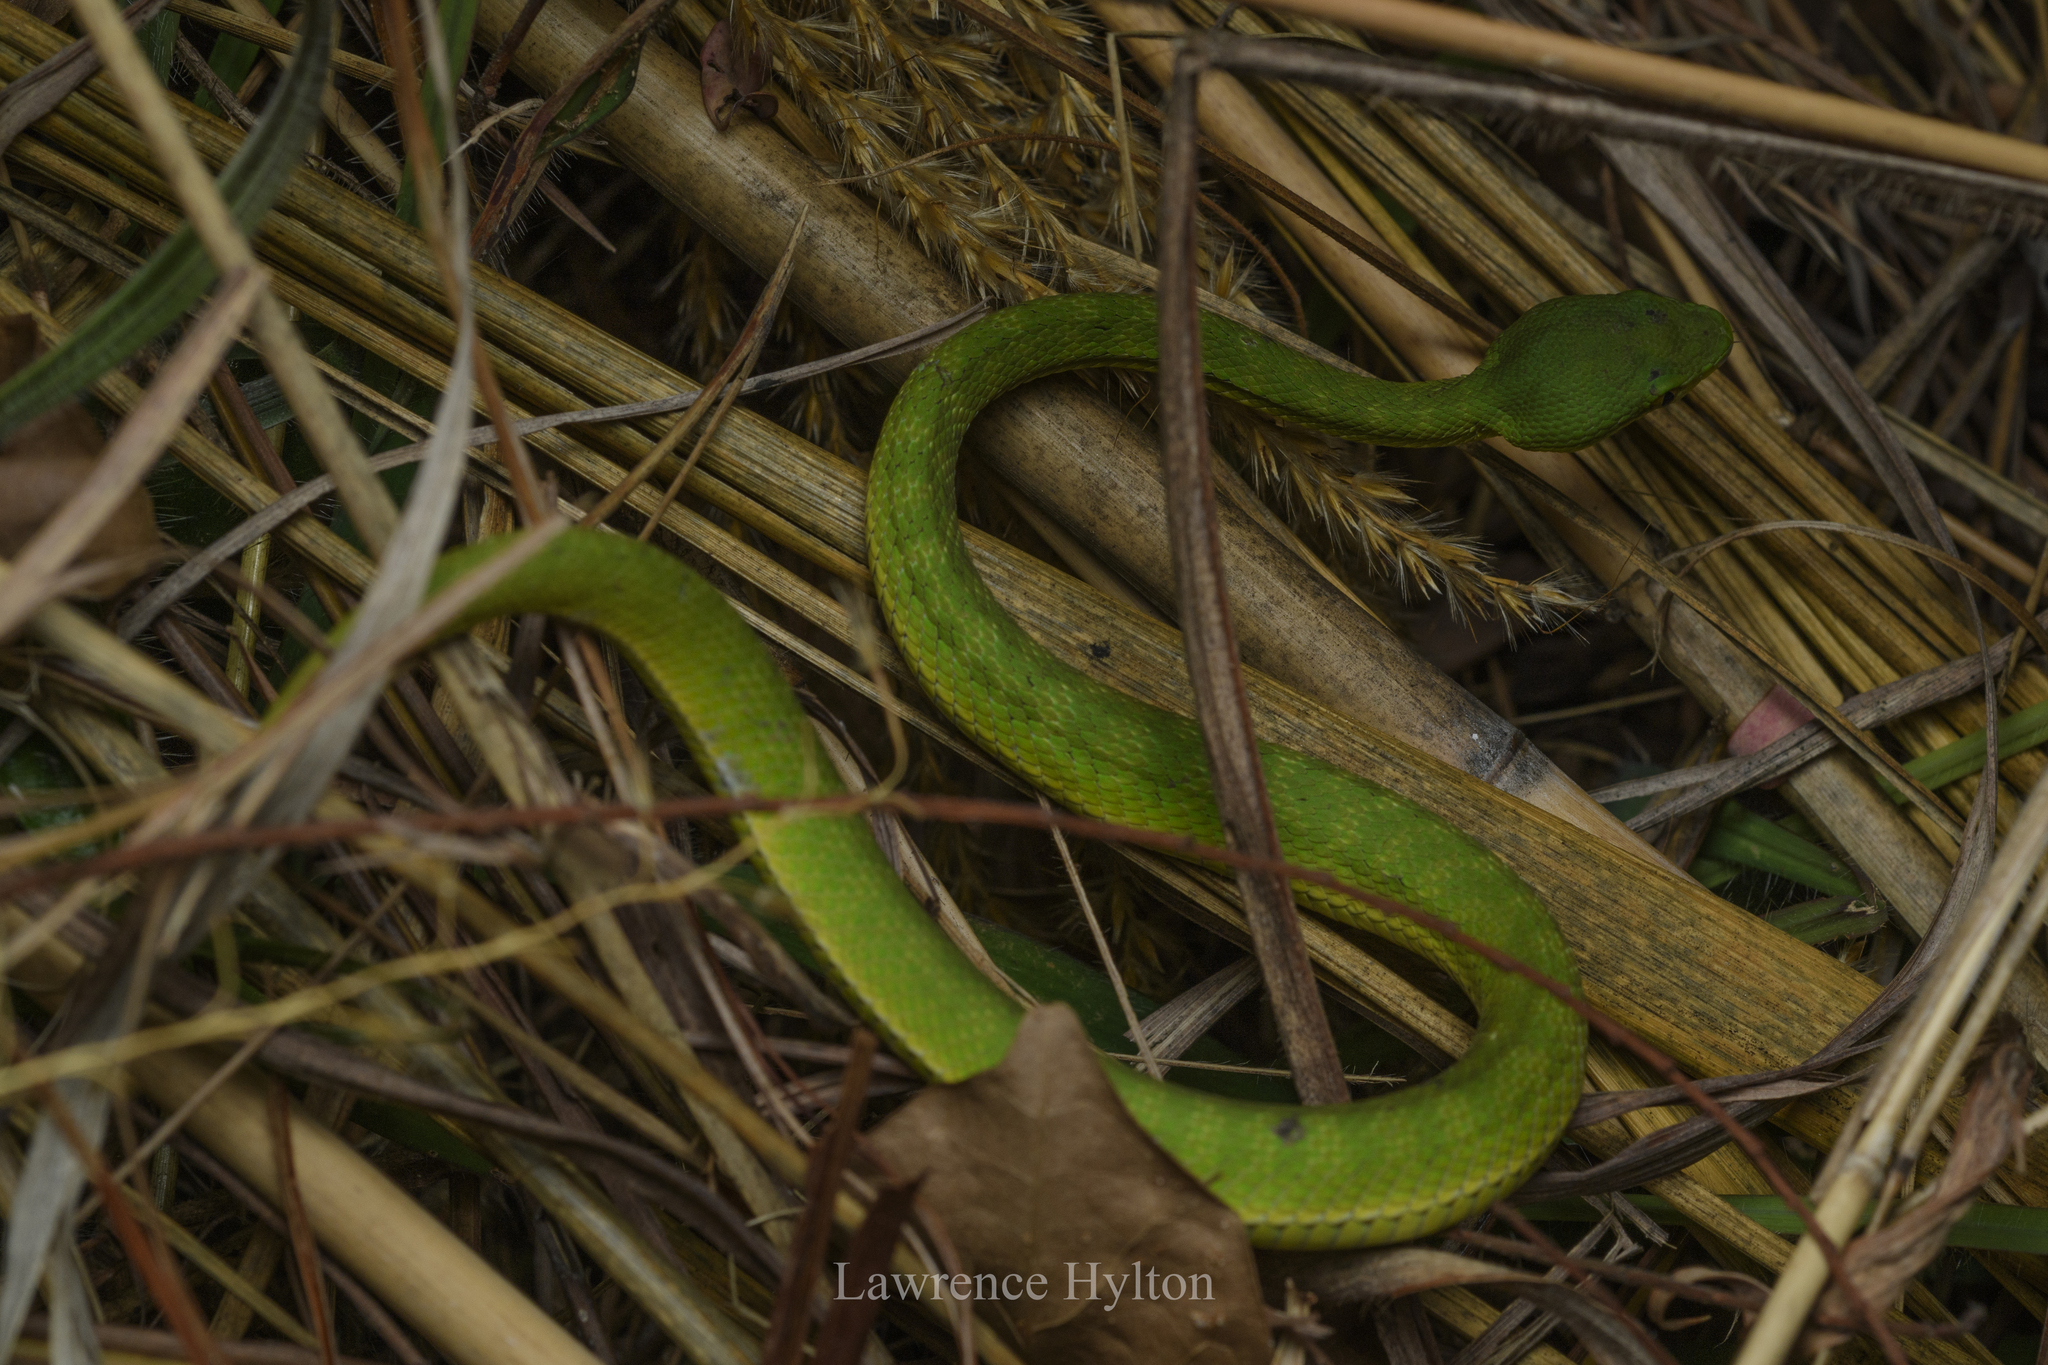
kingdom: Animalia
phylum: Chordata
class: Squamata
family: Viperidae
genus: Trimeresurus
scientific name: Trimeresurus albolabris
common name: White-lipped pitviper
